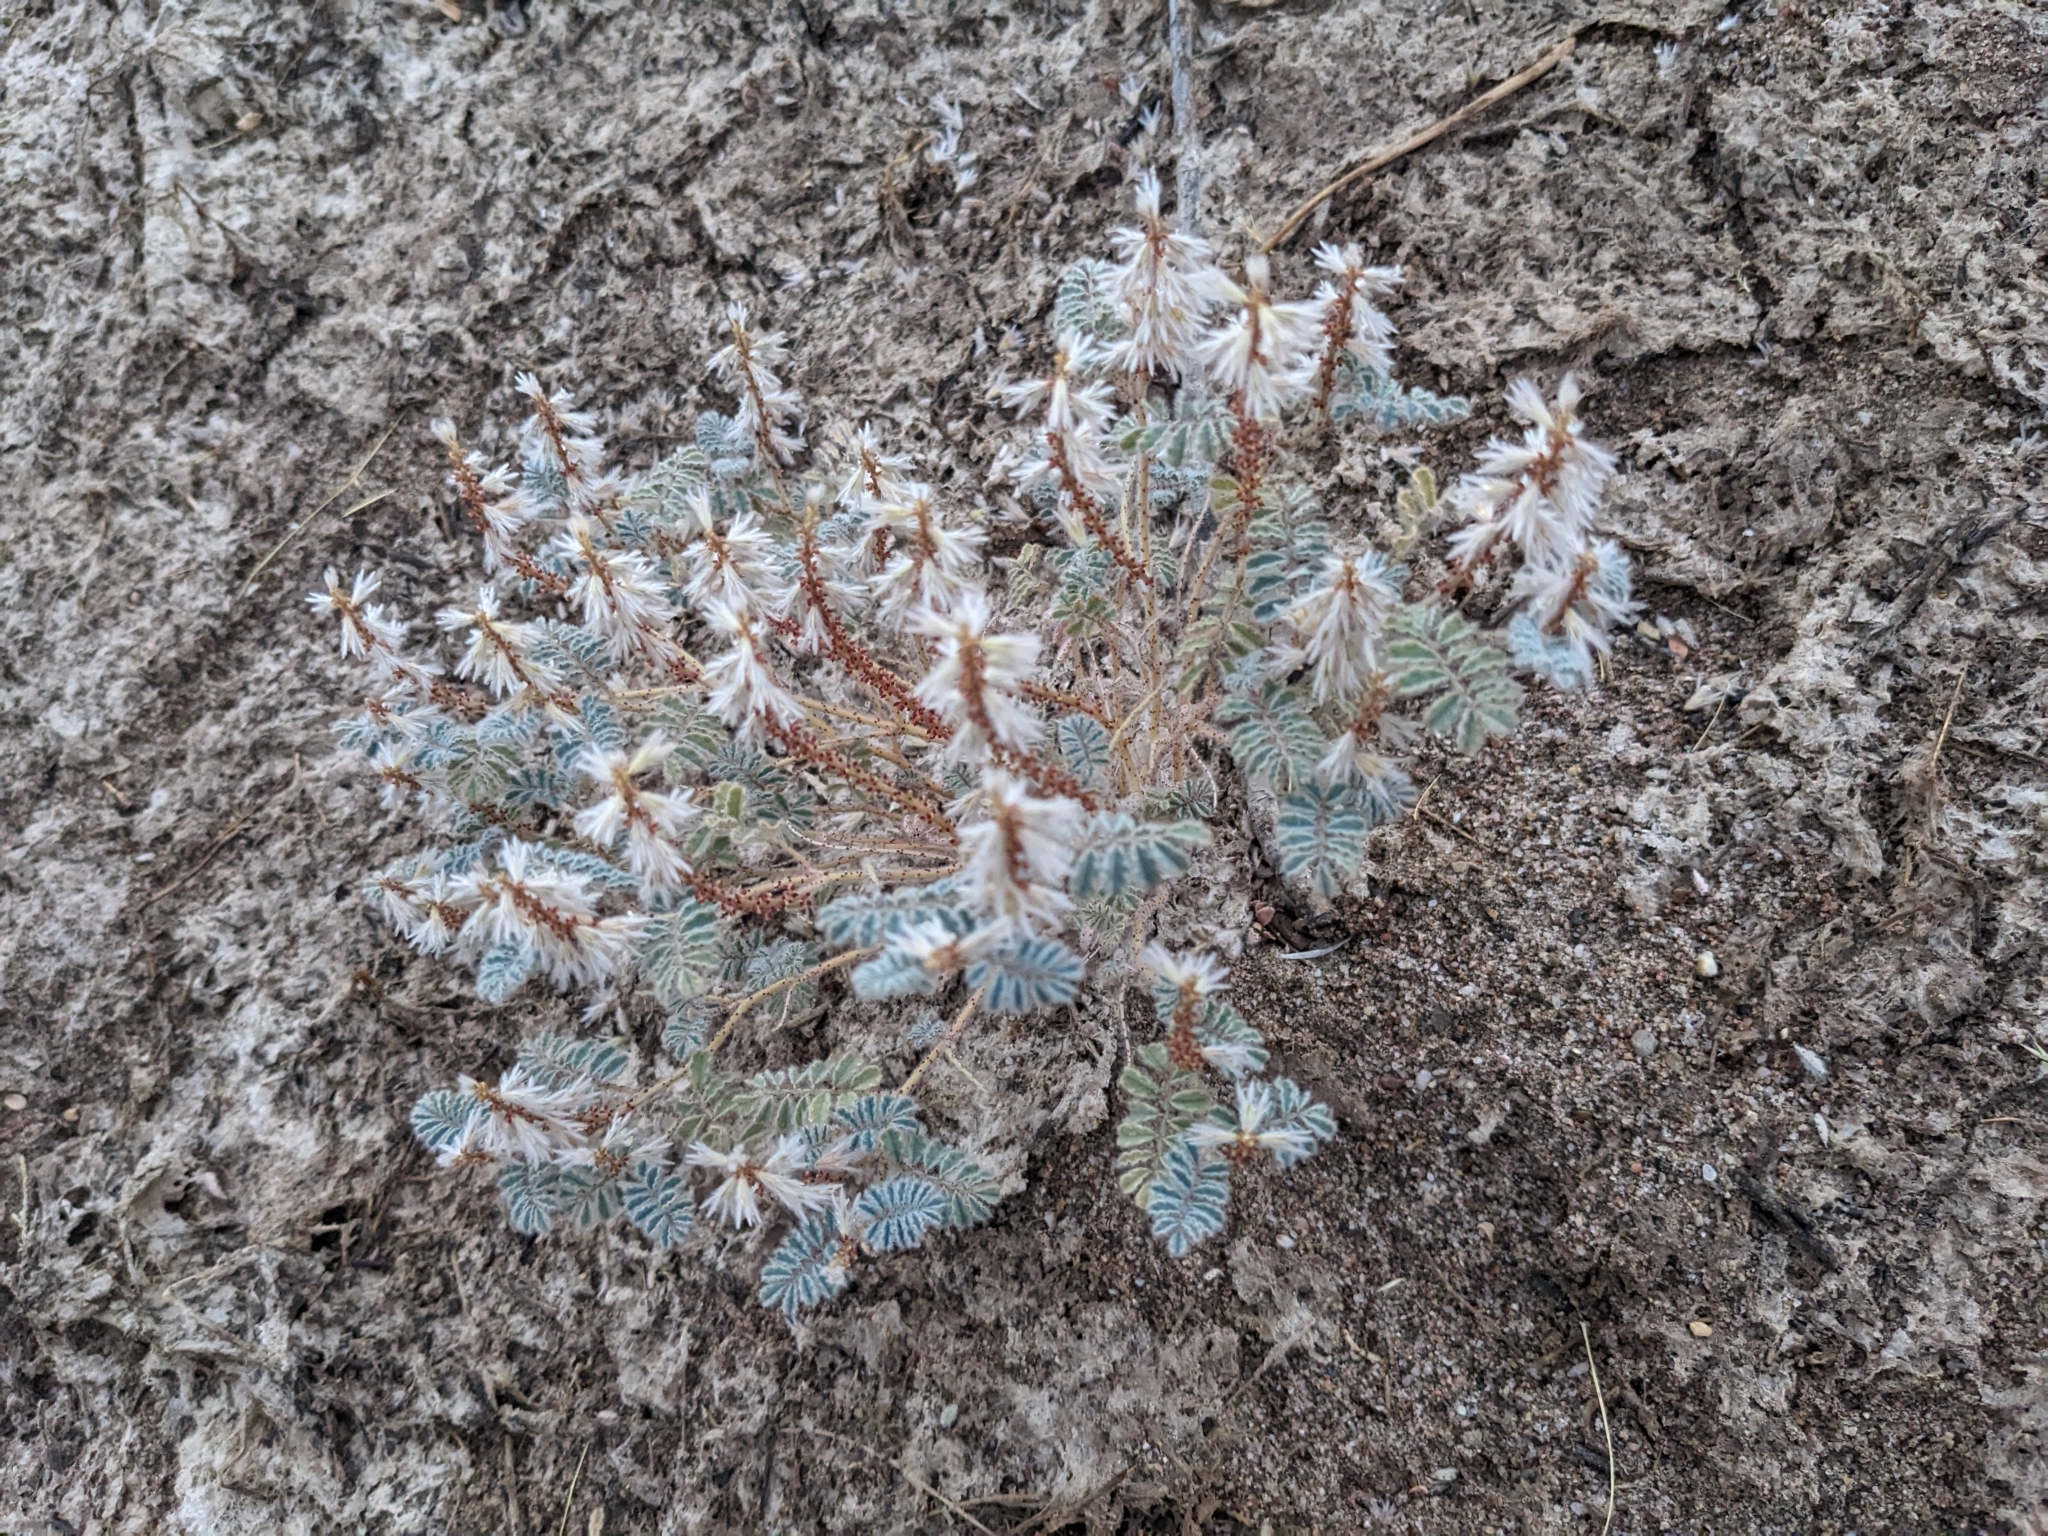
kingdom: Plantae
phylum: Tracheophyta
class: Magnoliopsida
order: Fabales
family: Fabaceae
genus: Dalea
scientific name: Dalea mollissima
